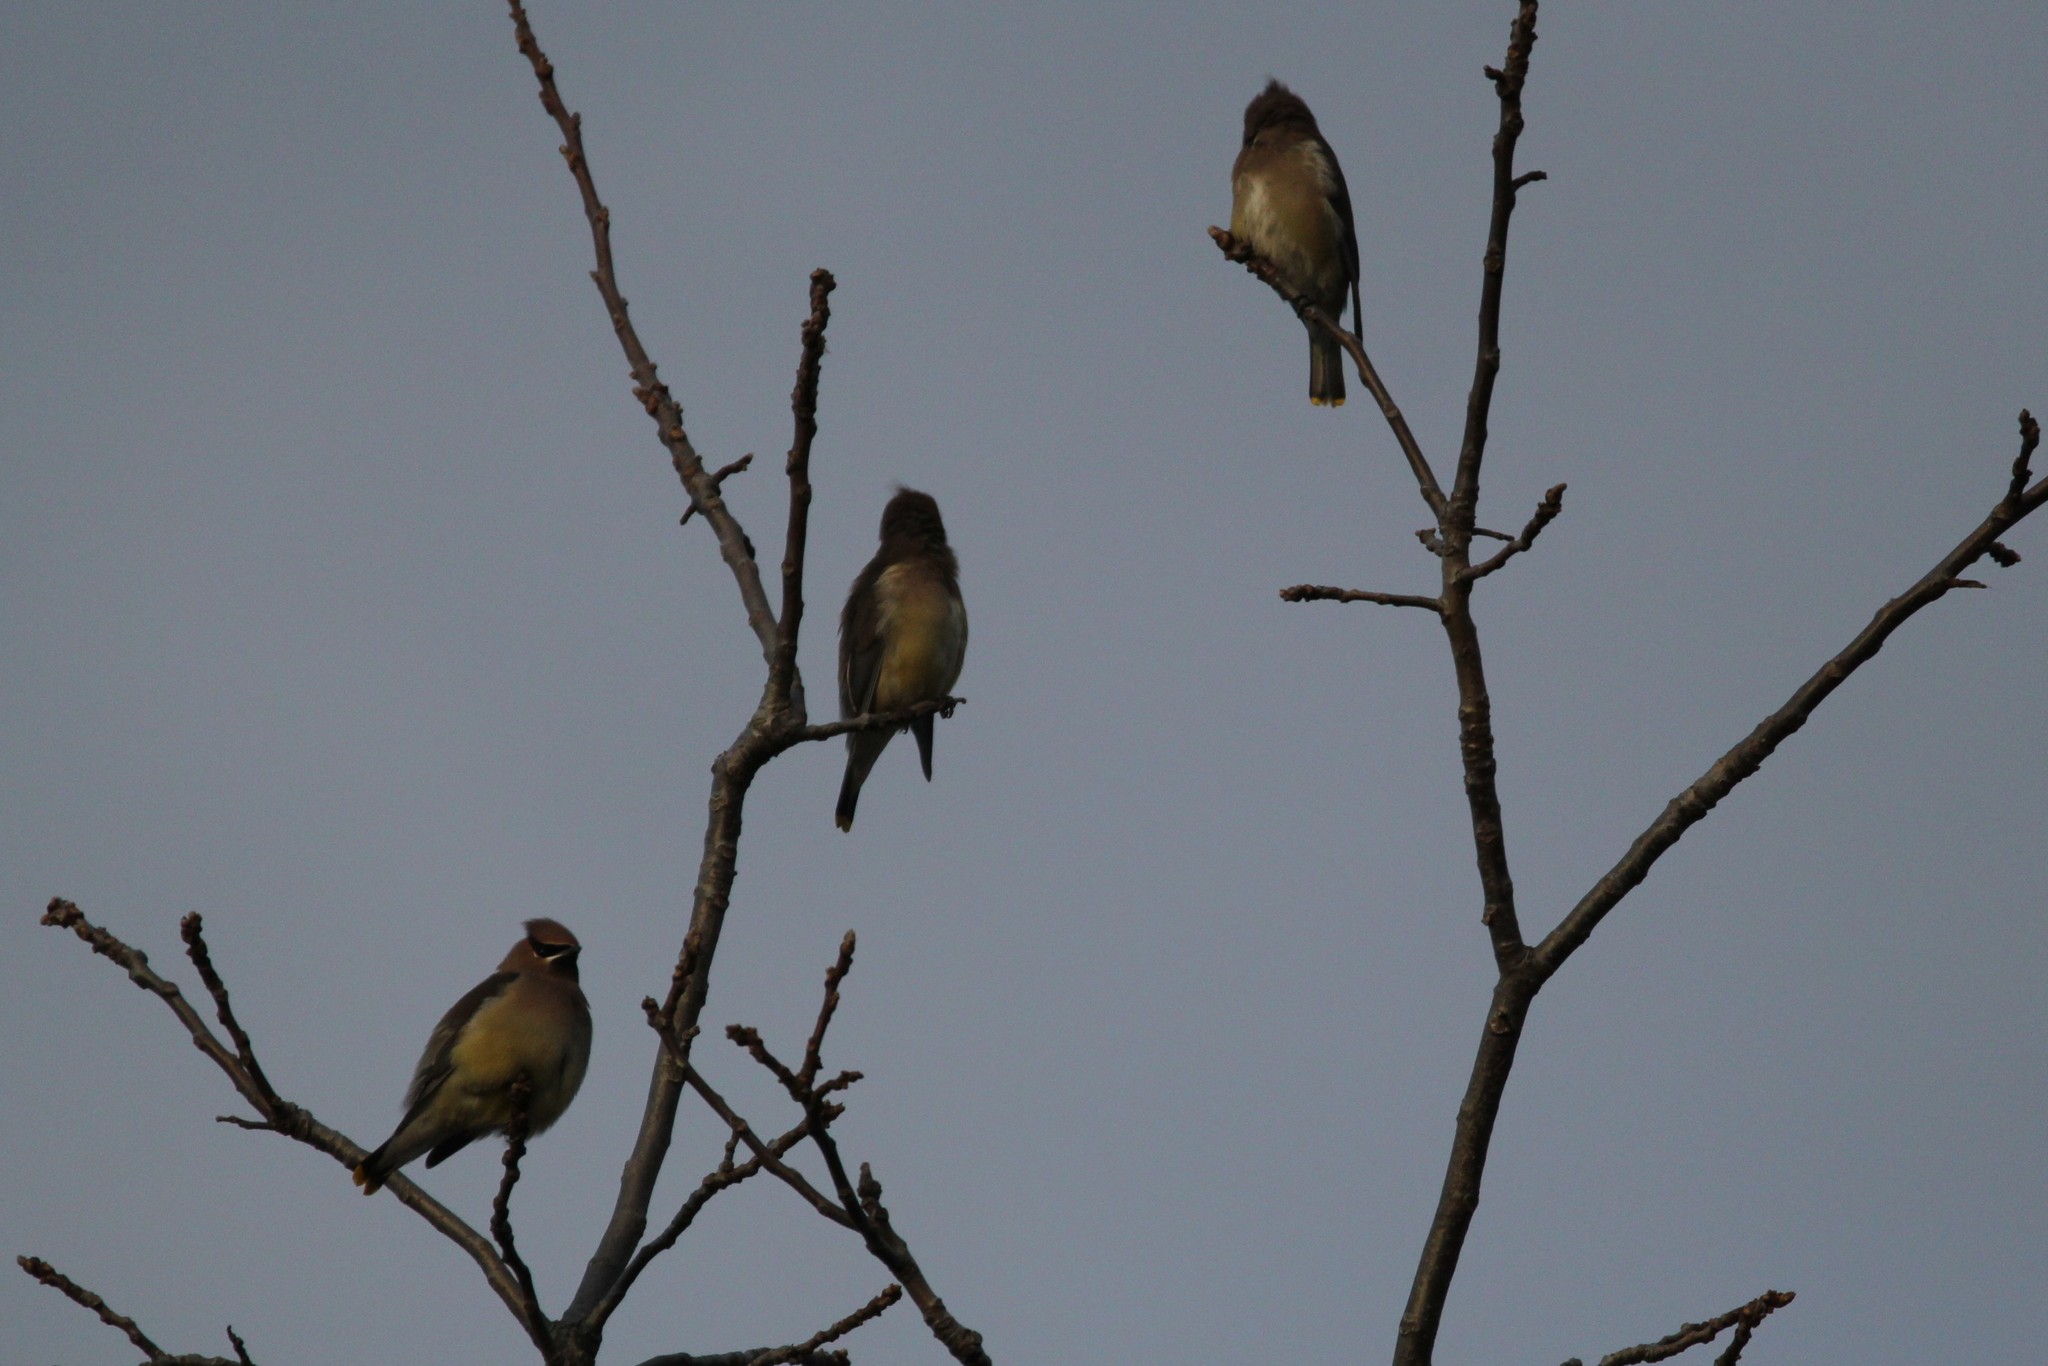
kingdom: Animalia
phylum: Chordata
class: Aves
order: Passeriformes
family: Bombycillidae
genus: Bombycilla
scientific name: Bombycilla cedrorum
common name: Cedar waxwing
